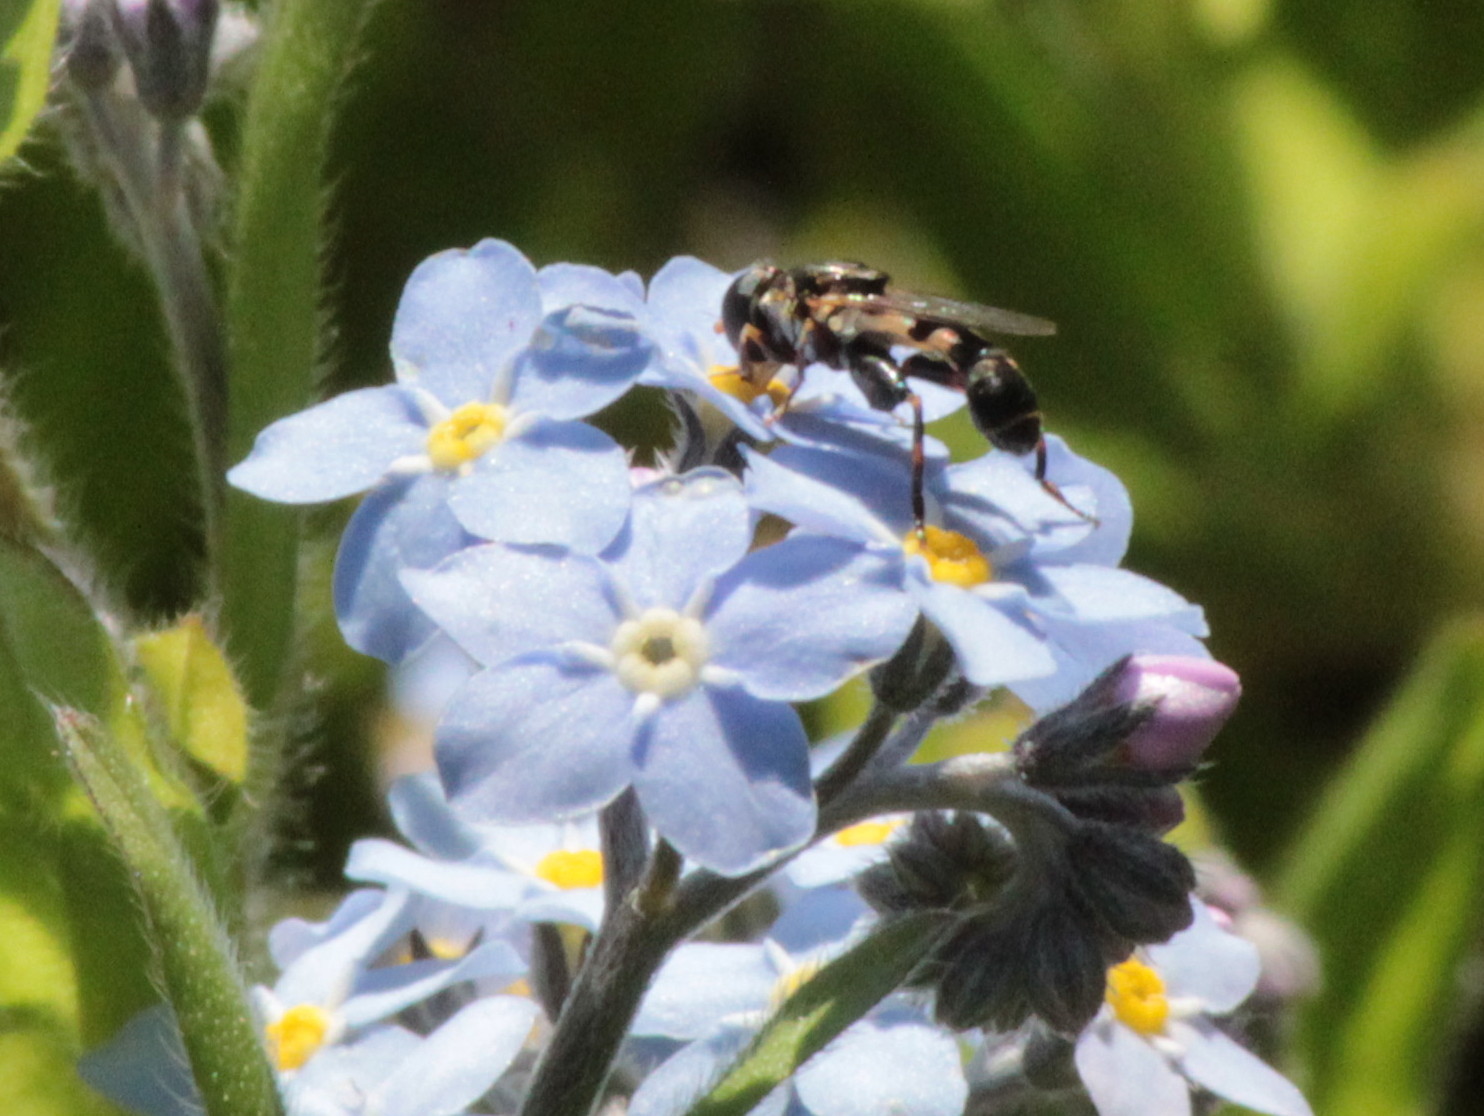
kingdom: Animalia
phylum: Arthropoda
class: Insecta
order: Diptera
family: Syrphidae
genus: Syritta
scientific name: Syritta pipiens
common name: Hover fly
